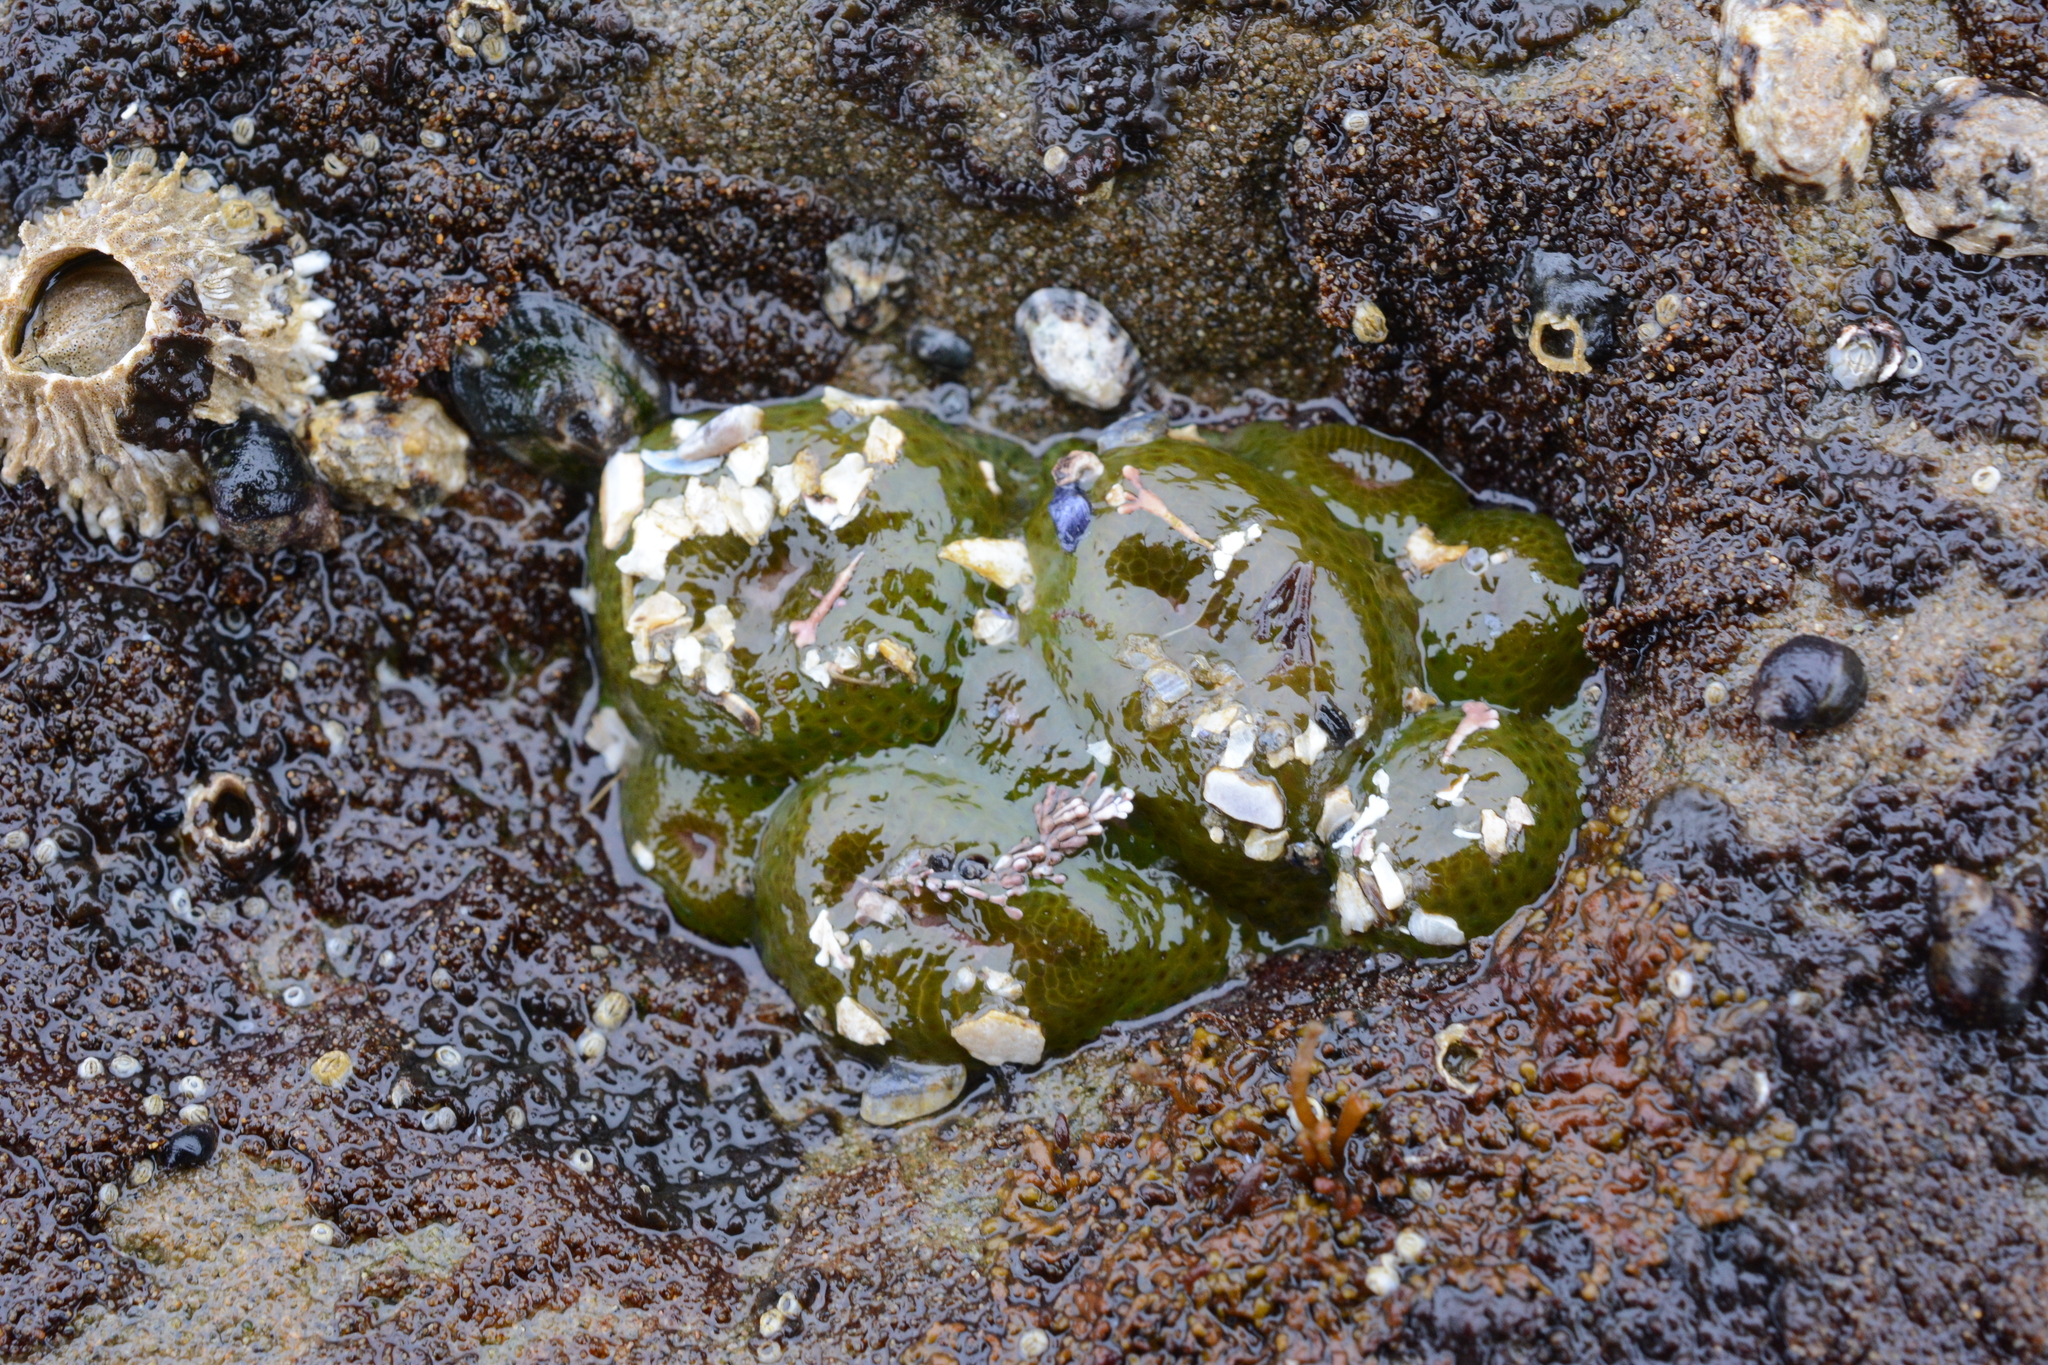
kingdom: Animalia
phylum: Cnidaria
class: Anthozoa
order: Actiniaria
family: Actiniidae
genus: Anthopleura
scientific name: Anthopleura elegantissima
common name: Clonal anemone
